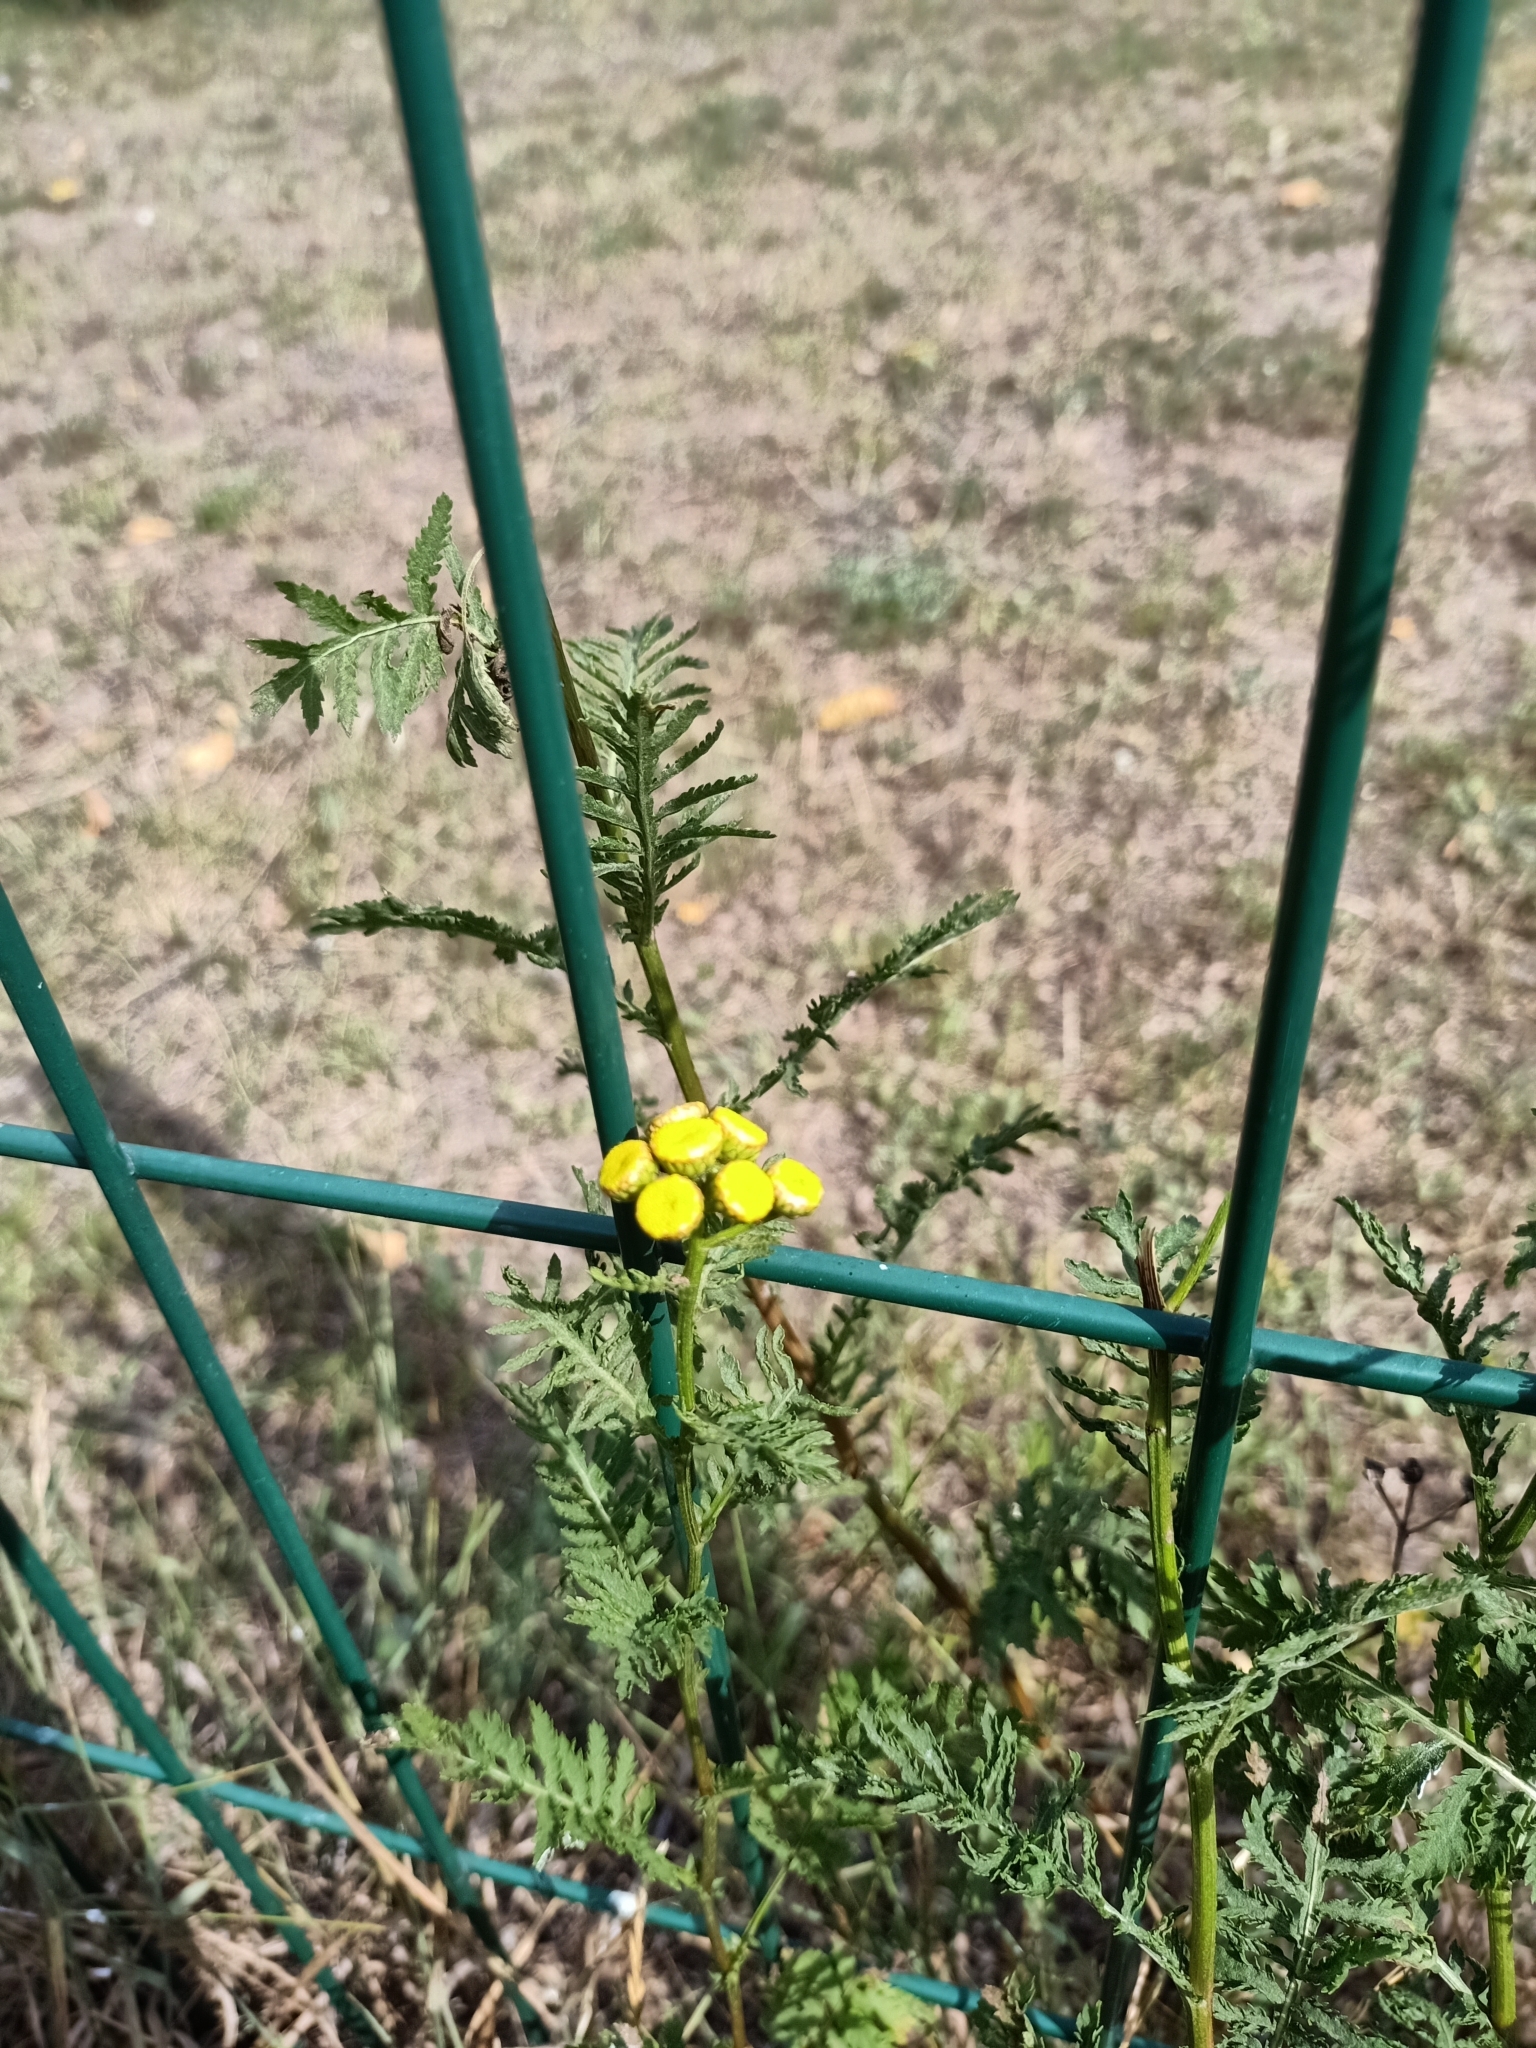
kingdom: Plantae
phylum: Tracheophyta
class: Magnoliopsida
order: Asterales
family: Asteraceae
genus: Tanacetum
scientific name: Tanacetum vulgare
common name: Common tansy
